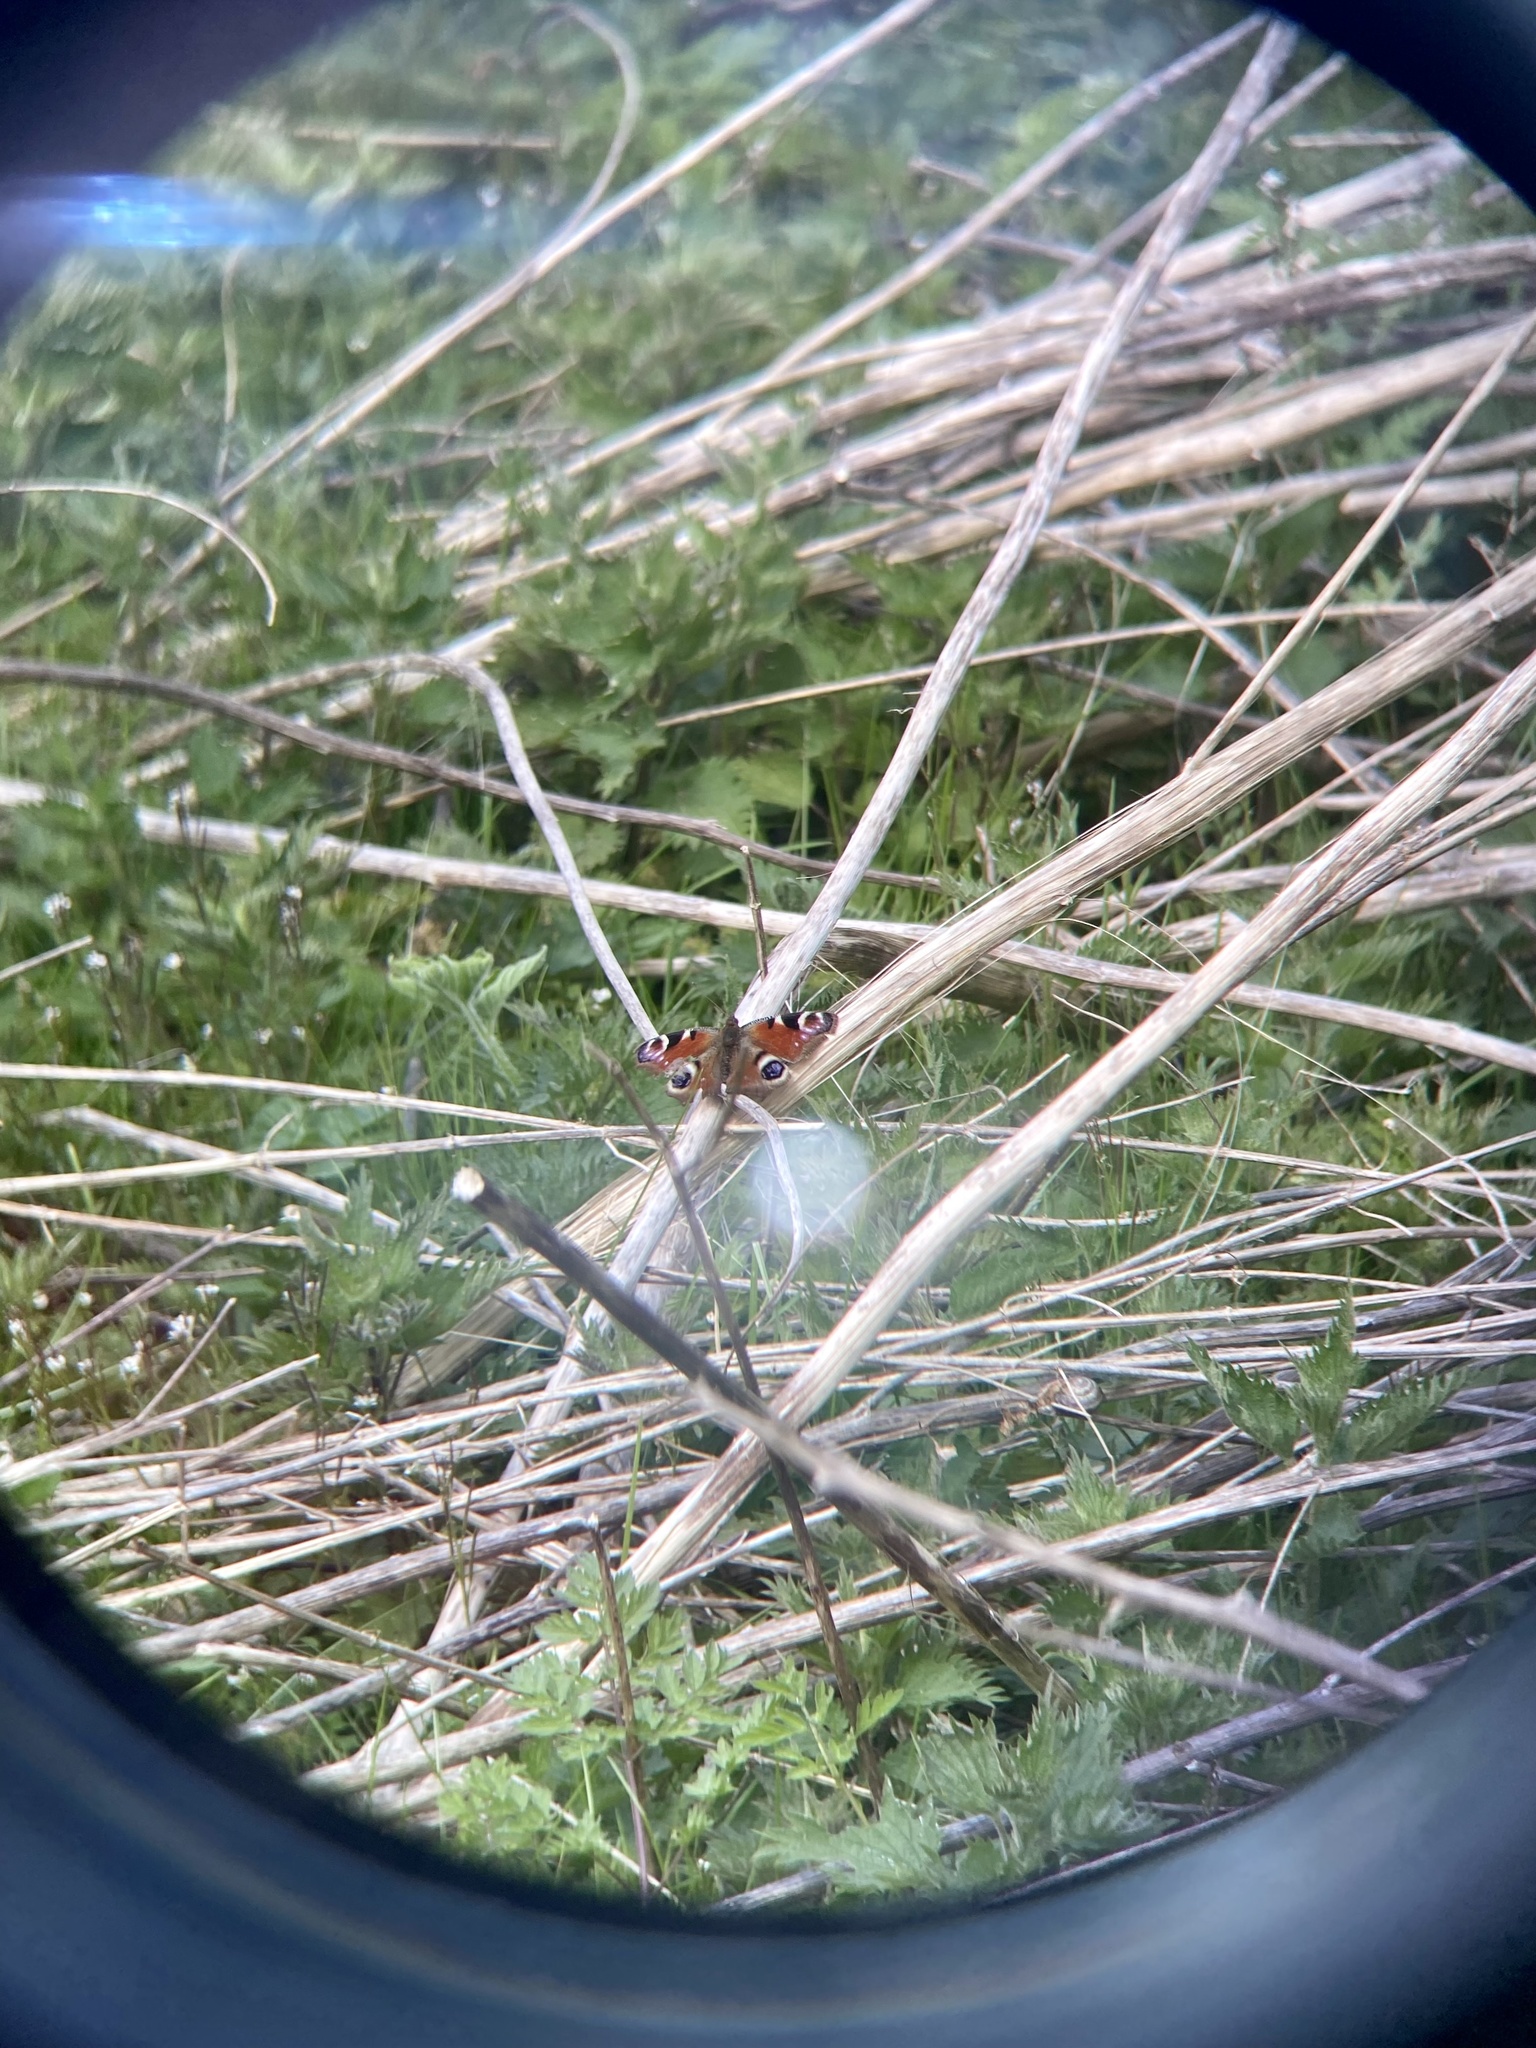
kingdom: Animalia
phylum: Arthropoda
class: Insecta
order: Lepidoptera
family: Nymphalidae
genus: Aglais
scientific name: Aglais io
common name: Peacock
